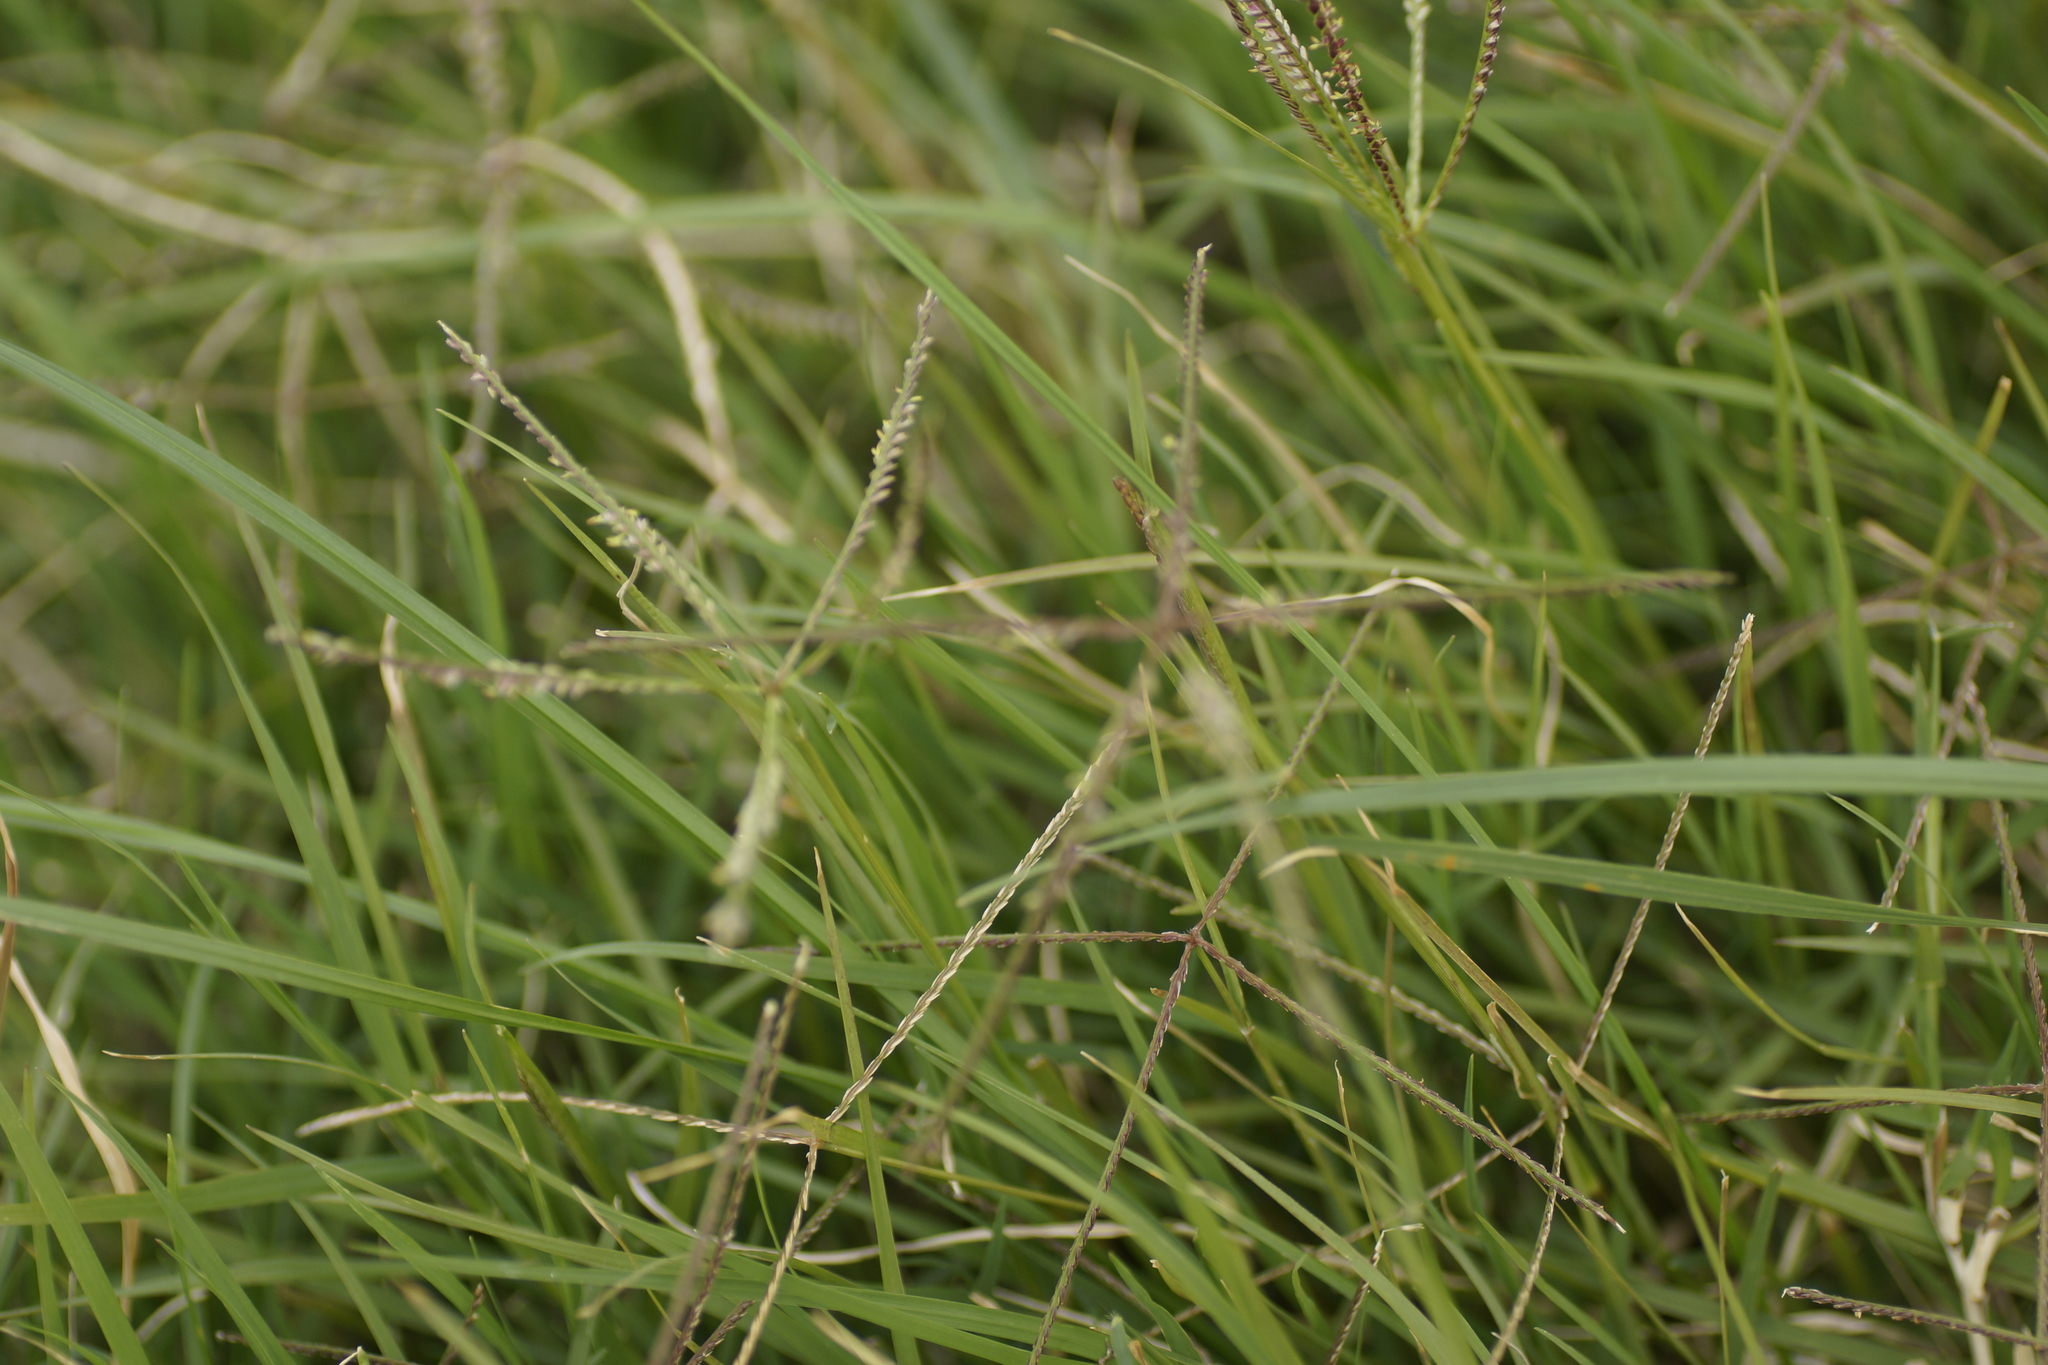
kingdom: Plantae
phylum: Tracheophyta
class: Liliopsida
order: Poales
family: Poaceae
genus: Cynodon
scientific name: Cynodon dactylon
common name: Bermuda grass
